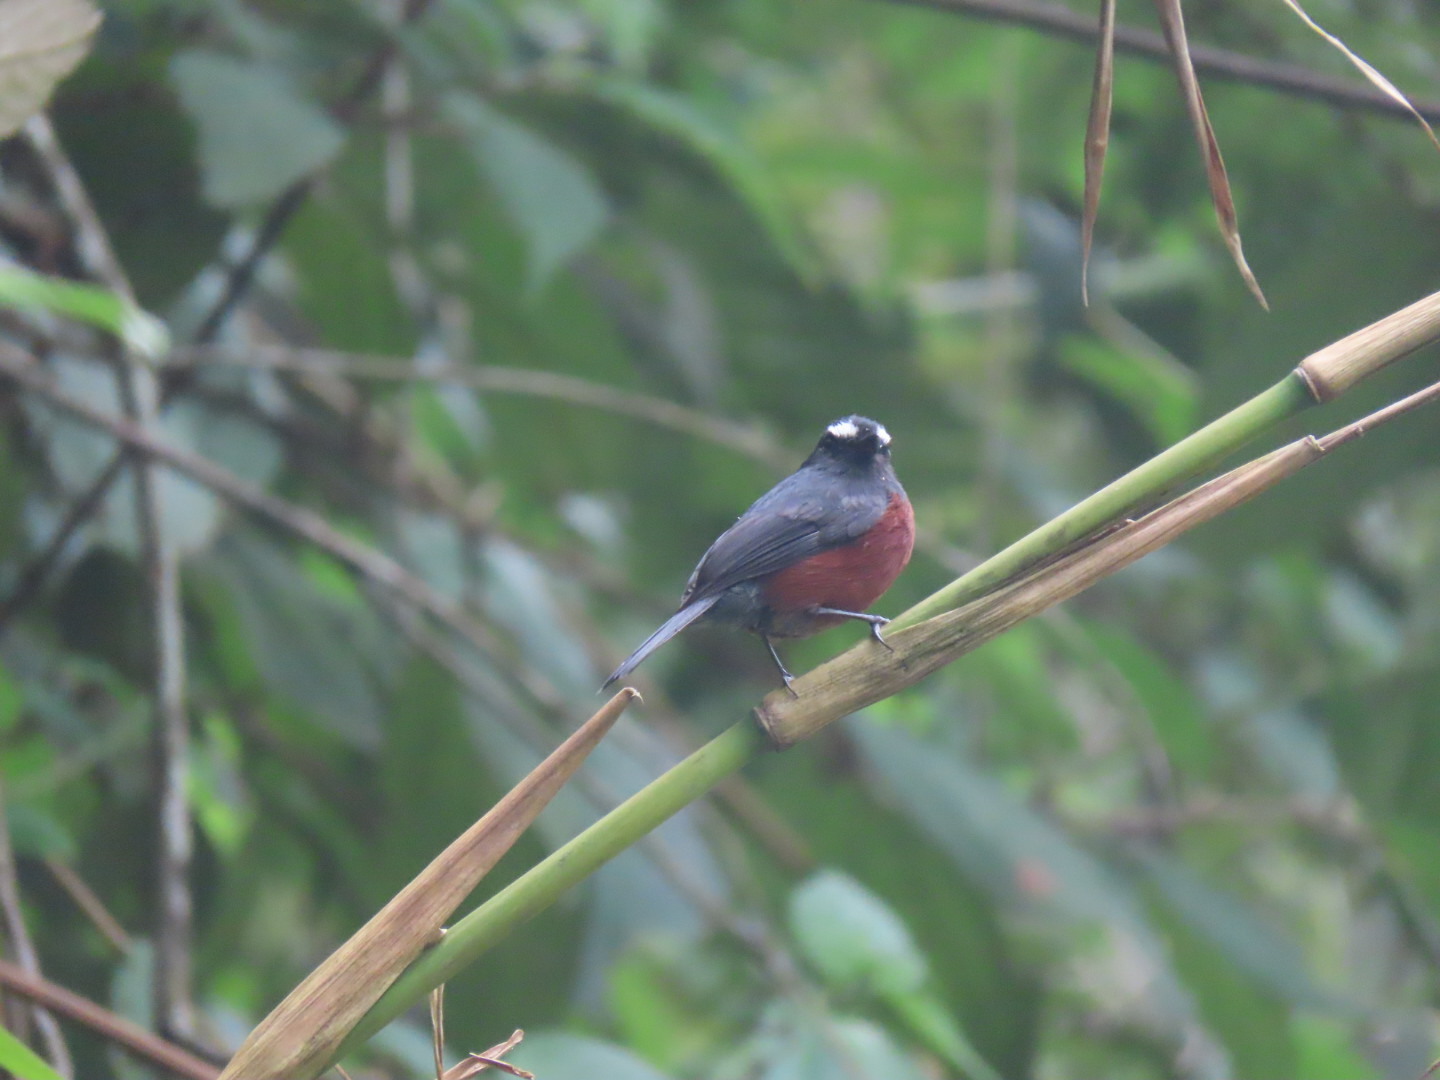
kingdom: Animalia
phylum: Chordata
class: Aves
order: Passeriformes
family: Tyrannidae
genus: Ochthoeca
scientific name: Ochthoeca cinnamomeiventris
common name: Slaty-backed chat-tyrant
